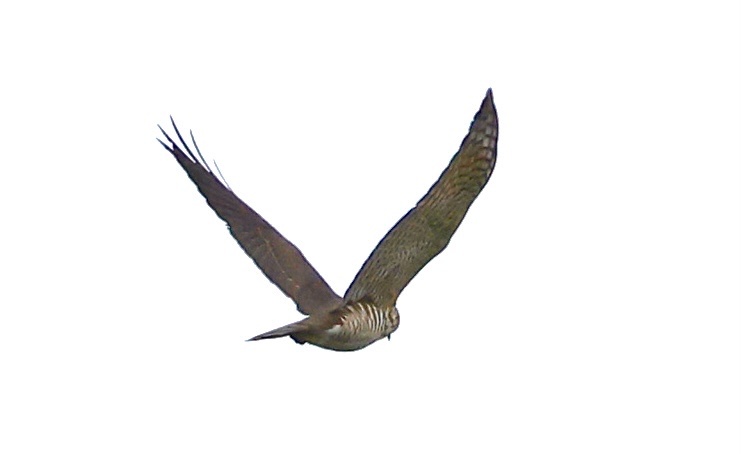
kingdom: Animalia
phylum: Chordata
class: Aves
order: Accipitriformes
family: Accipitridae
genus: Accipiter
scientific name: Accipiter gularis
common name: Japanese sparrowhawk
